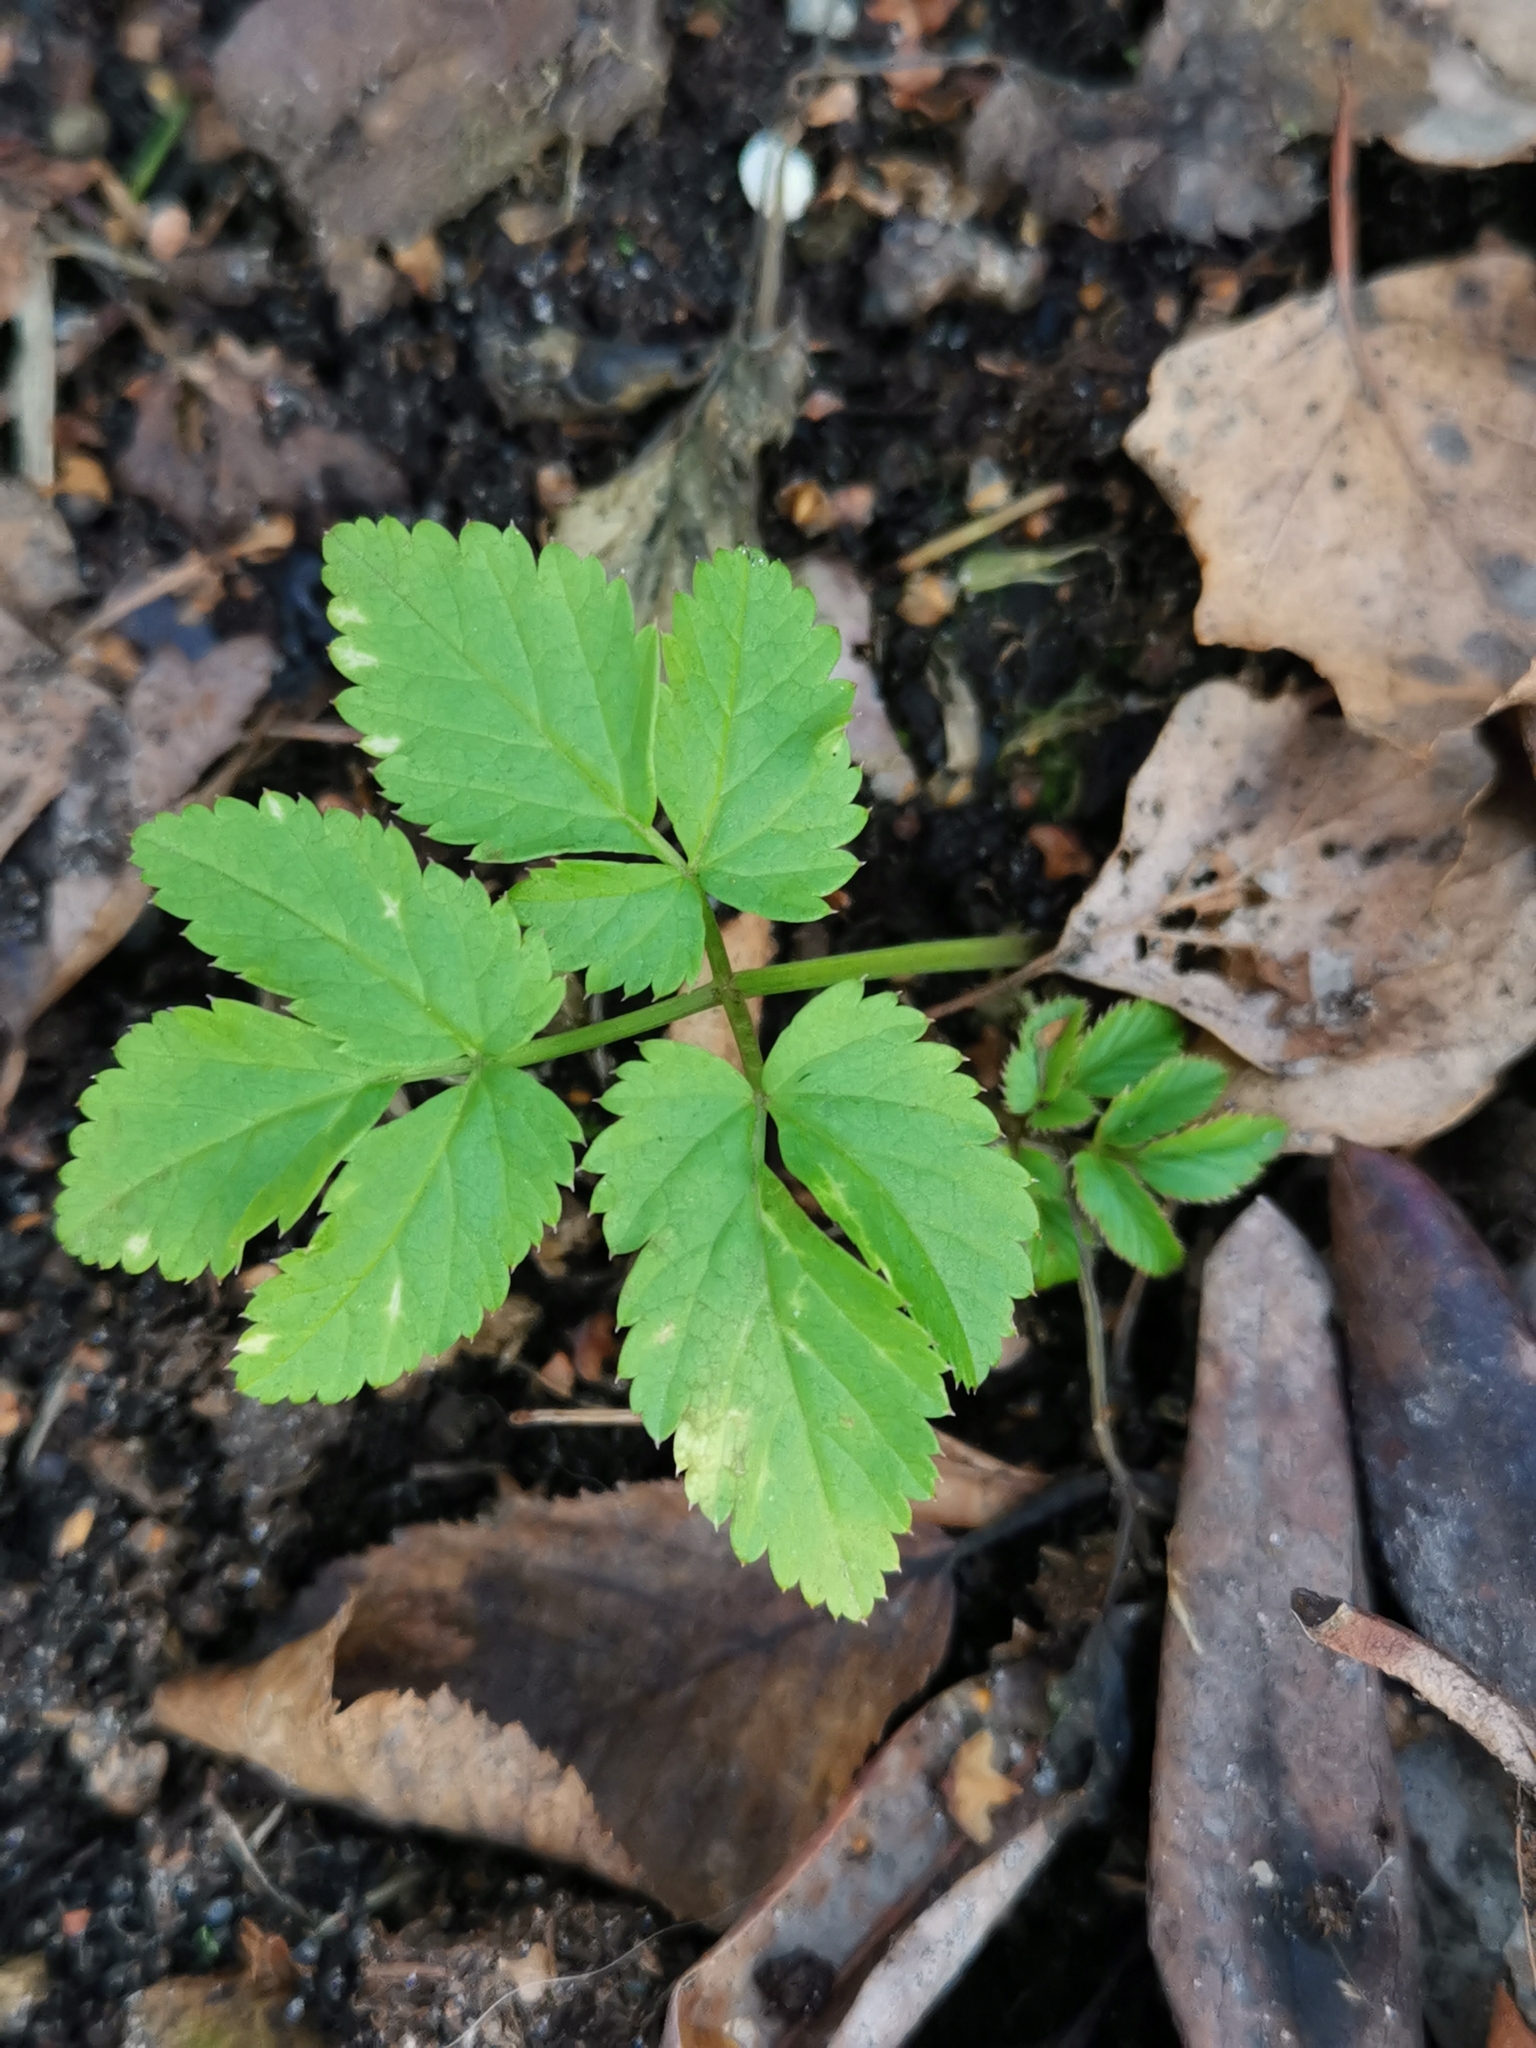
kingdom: Plantae
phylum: Tracheophyta
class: Magnoliopsida
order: Apiales
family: Apiaceae
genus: Aegopodium
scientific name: Aegopodium podagraria
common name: Ground-elder
